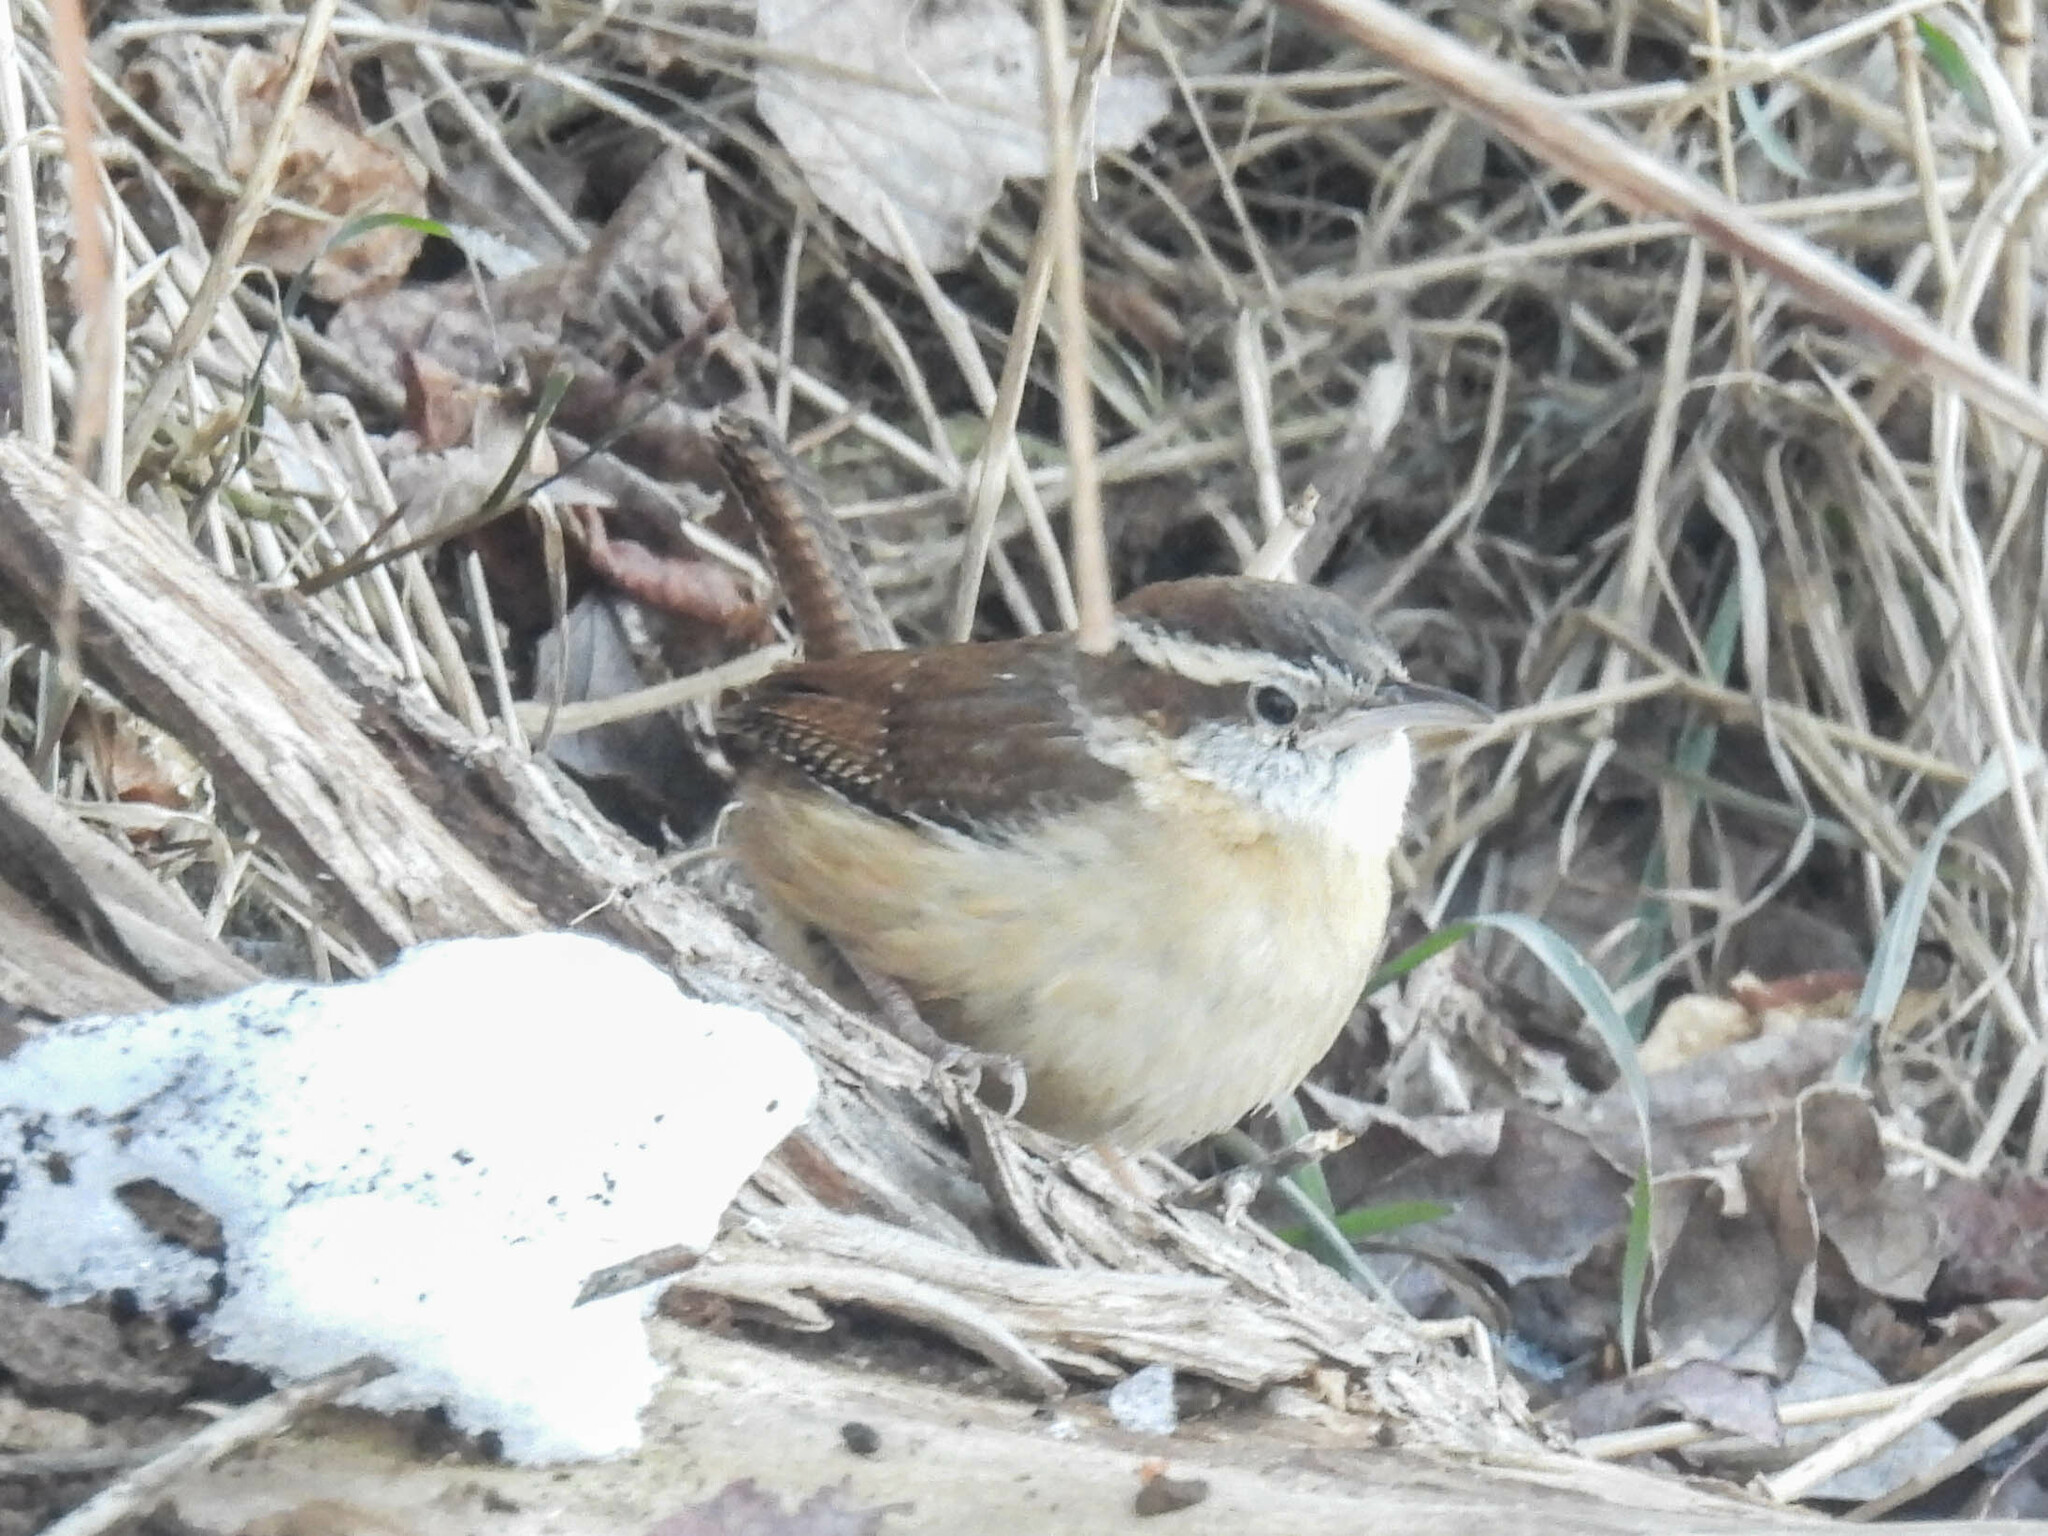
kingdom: Animalia
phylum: Chordata
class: Aves
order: Passeriformes
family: Troglodytidae
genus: Thryothorus
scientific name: Thryothorus ludovicianus
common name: Carolina wren
